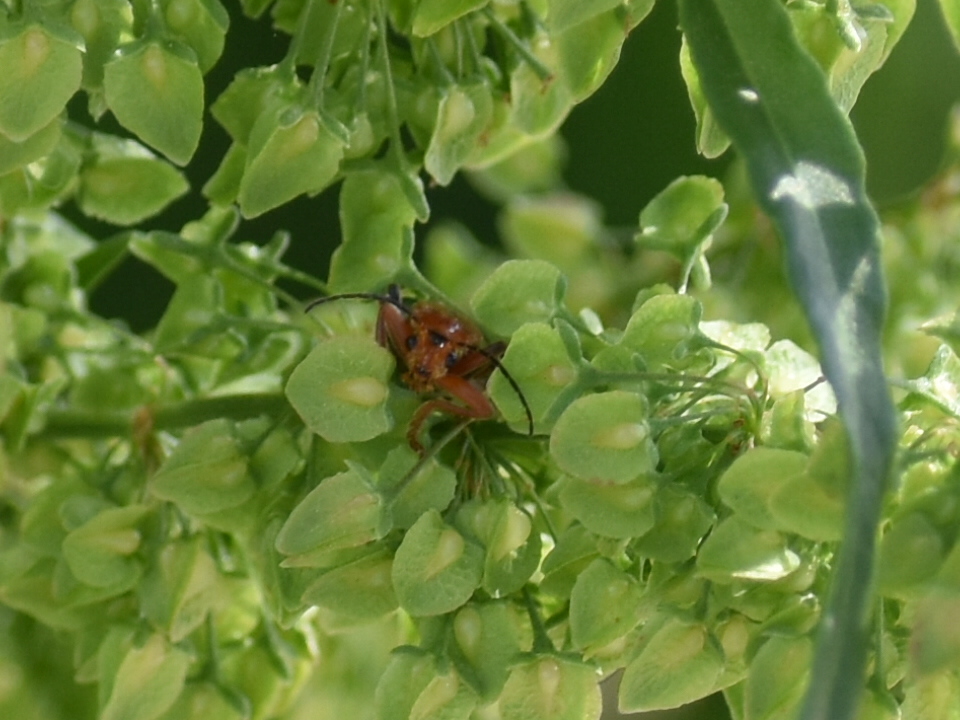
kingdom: Animalia
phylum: Arthropoda
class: Insecta
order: Coleoptera
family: Cantharidae
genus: Cantharis
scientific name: Cantharis livida
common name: Livid soldier beetle
